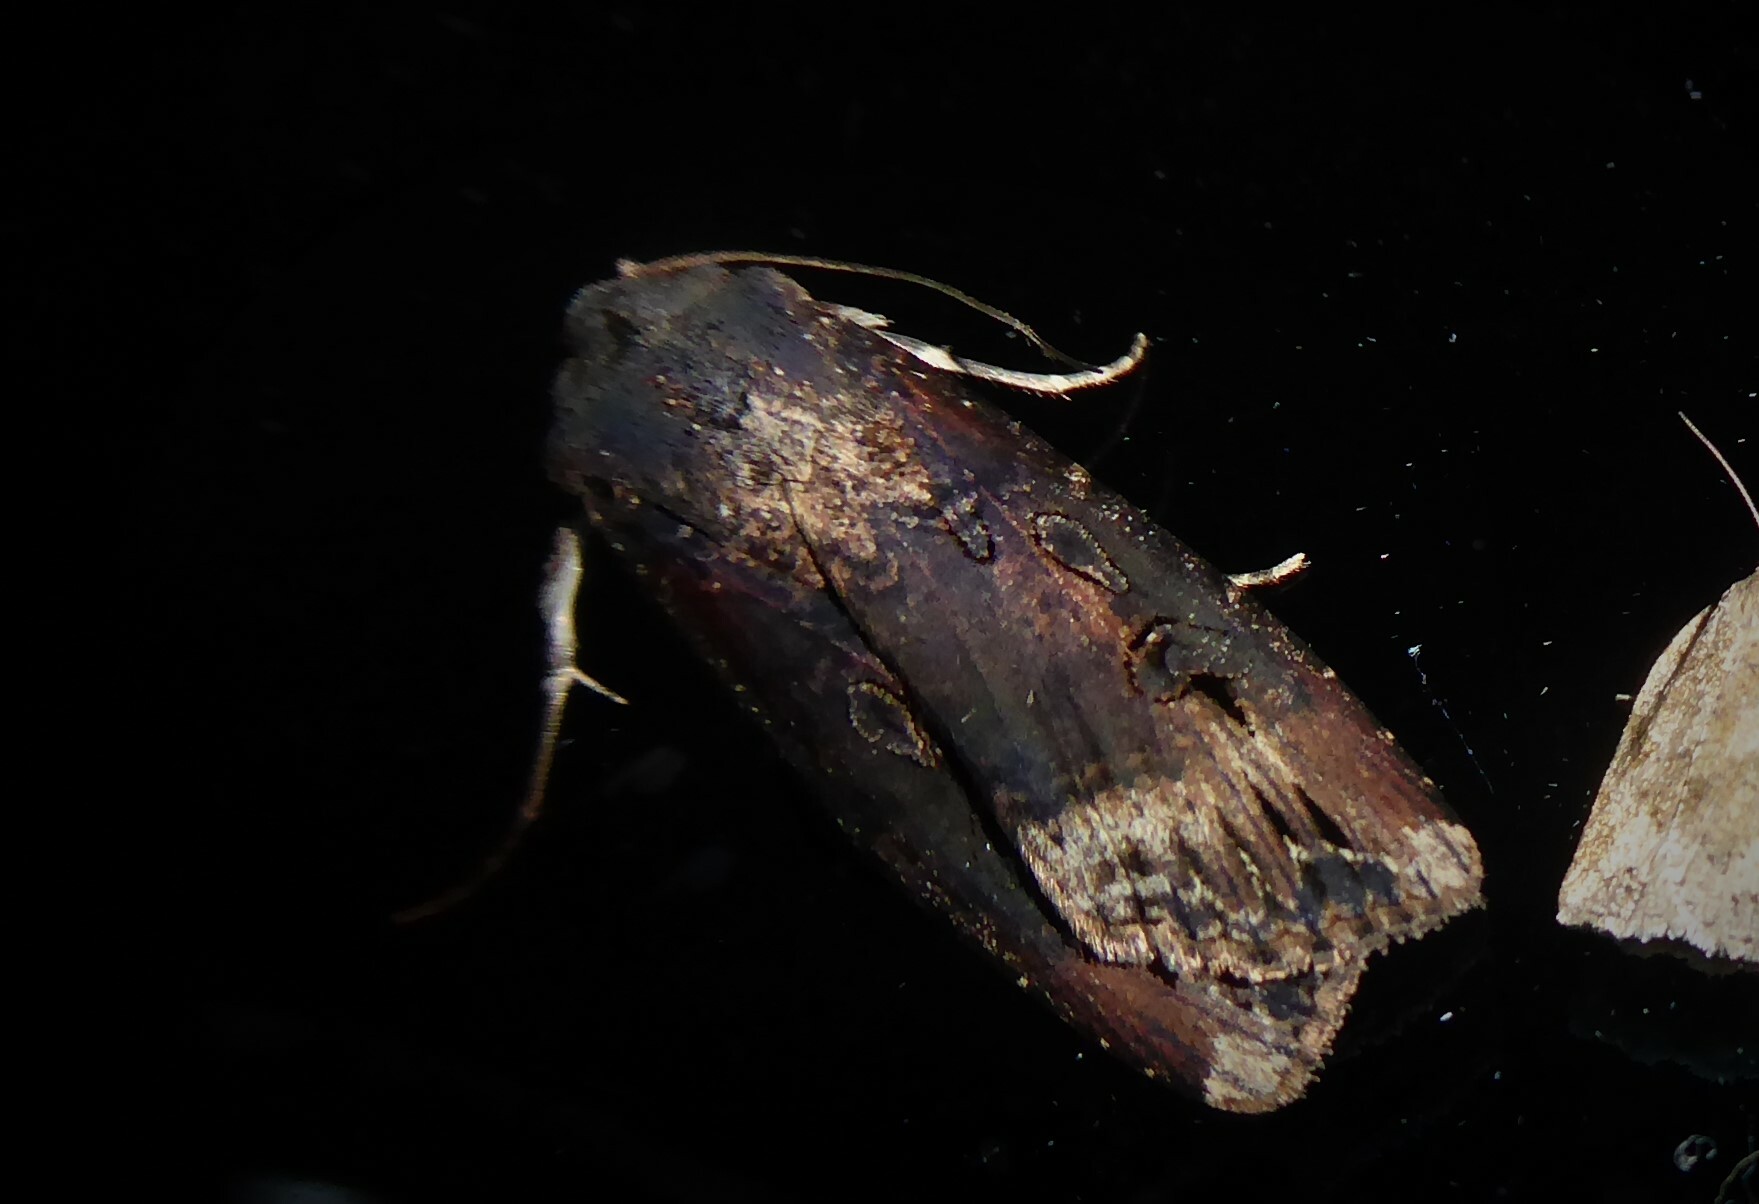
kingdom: Animalia
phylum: Arthropoda
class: Insecta
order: Lepidoptera
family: Noctuidae
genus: Agrotis
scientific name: Agrotis ipsilon
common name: Dark sword-grass
